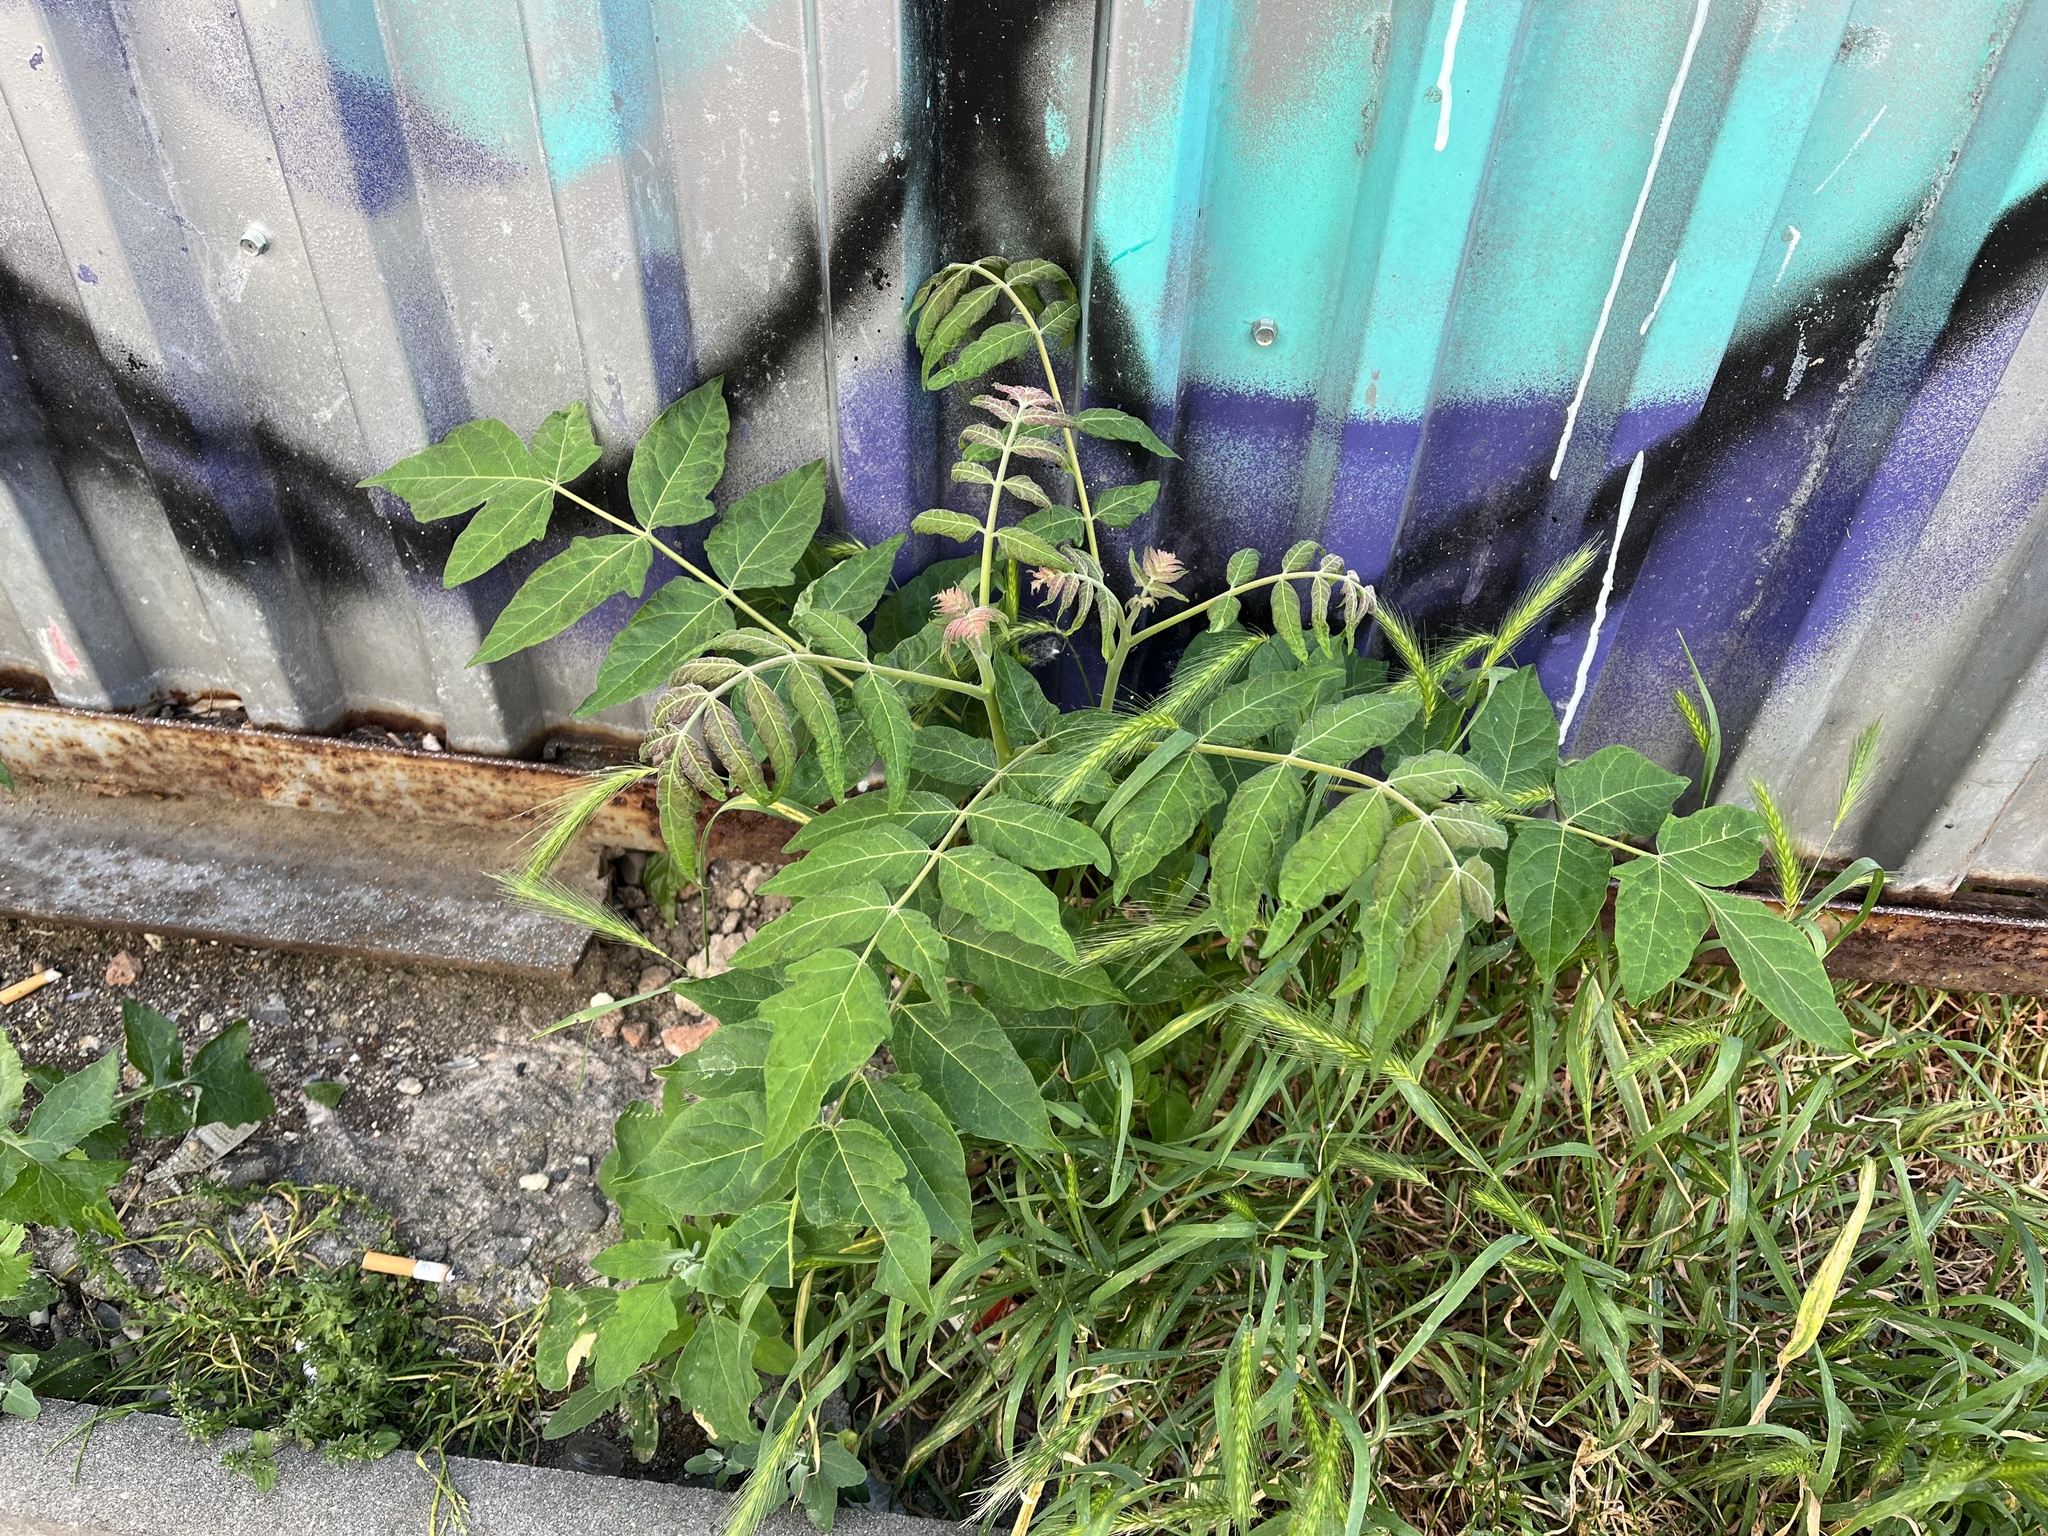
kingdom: Plantae
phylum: Tracheophyta
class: Magnoliopsida
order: Sapindales
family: Simaroubaceae
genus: Ailanthus
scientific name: Ailanthus altissima
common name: Tree-of-heaven
